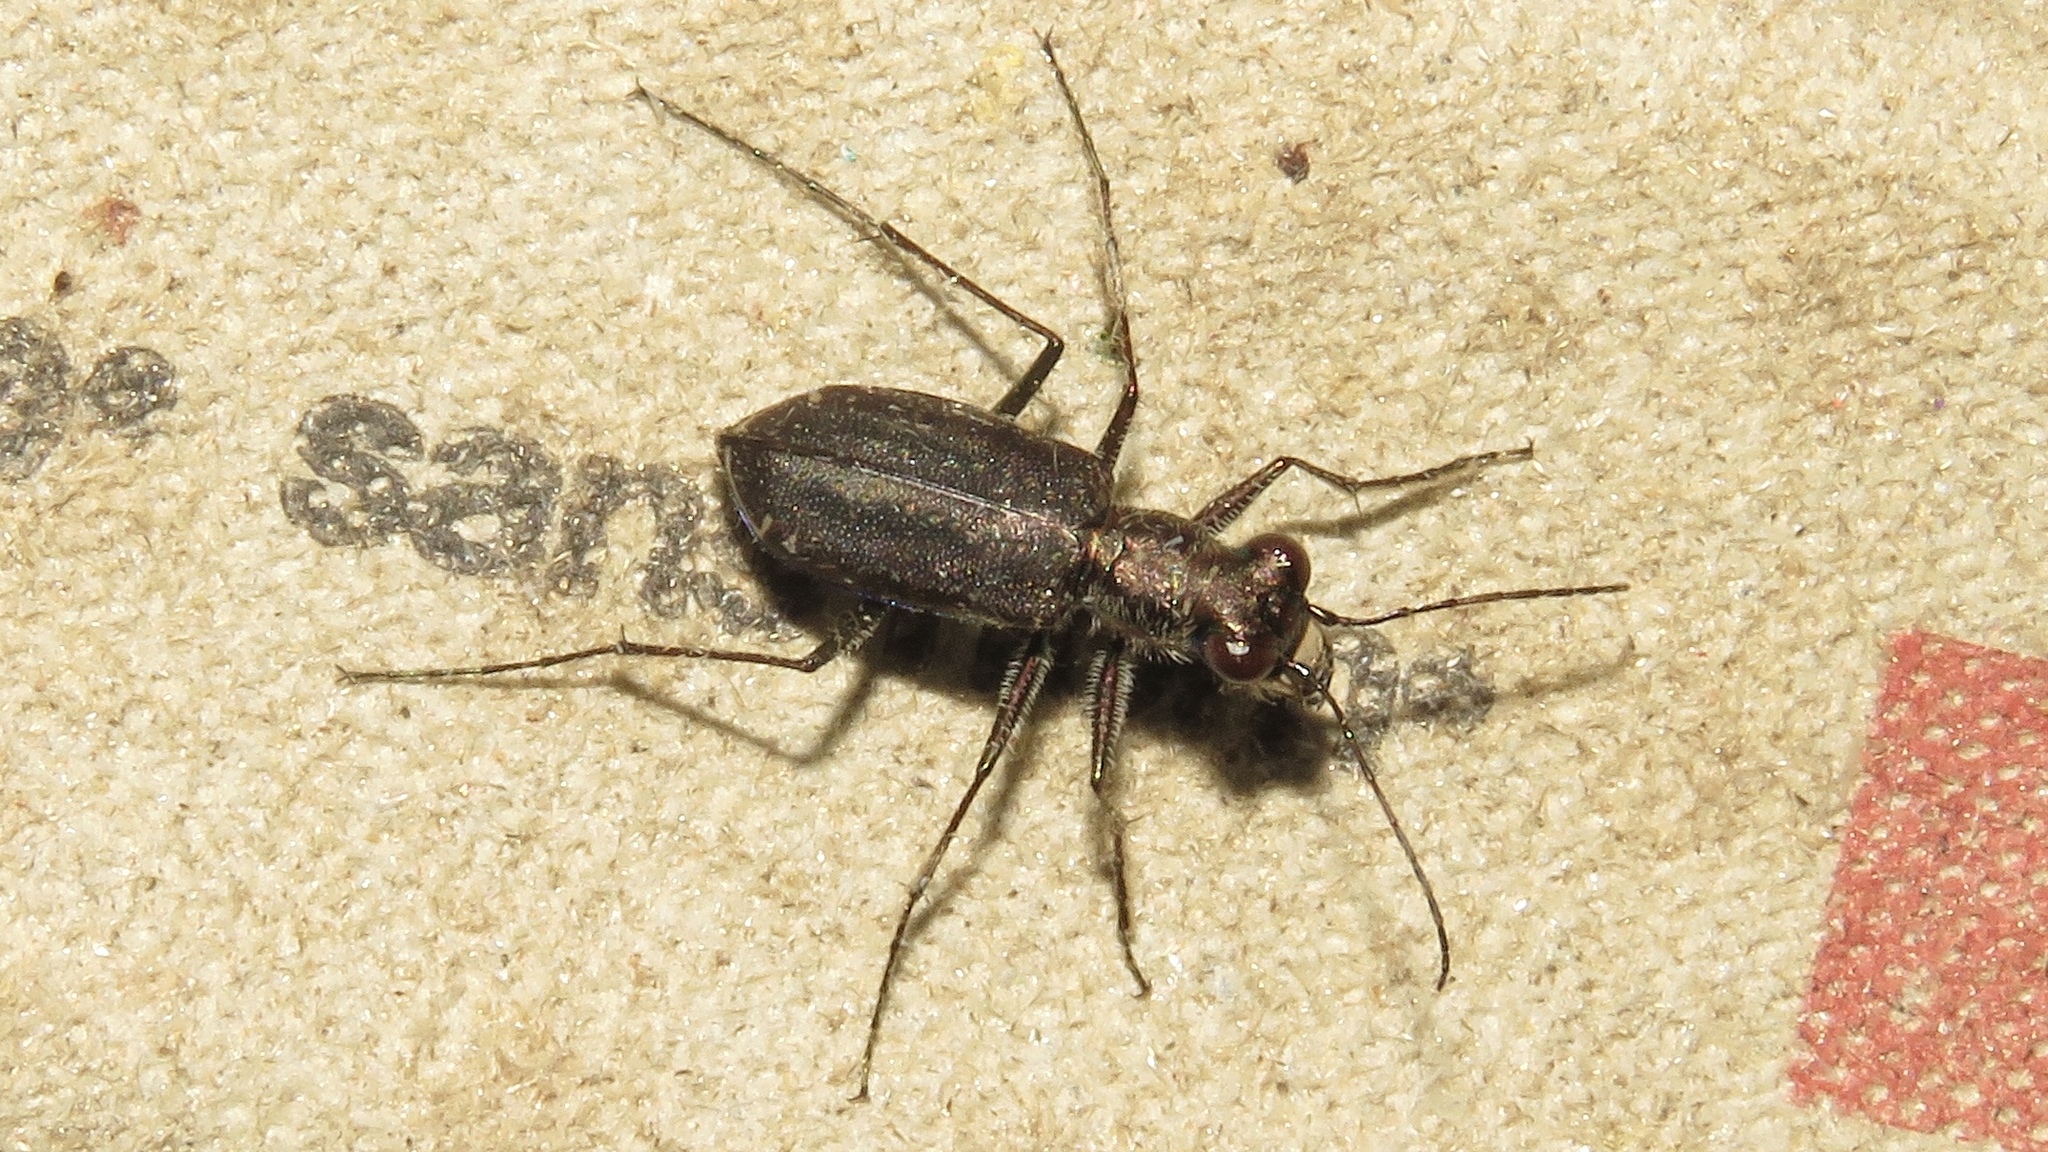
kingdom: Animalia
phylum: Arthropoda
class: Insecta
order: Coleoptera
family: Carabidae
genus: Cicindela
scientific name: Cicindela punctulata
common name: Punctured tiger beetle
